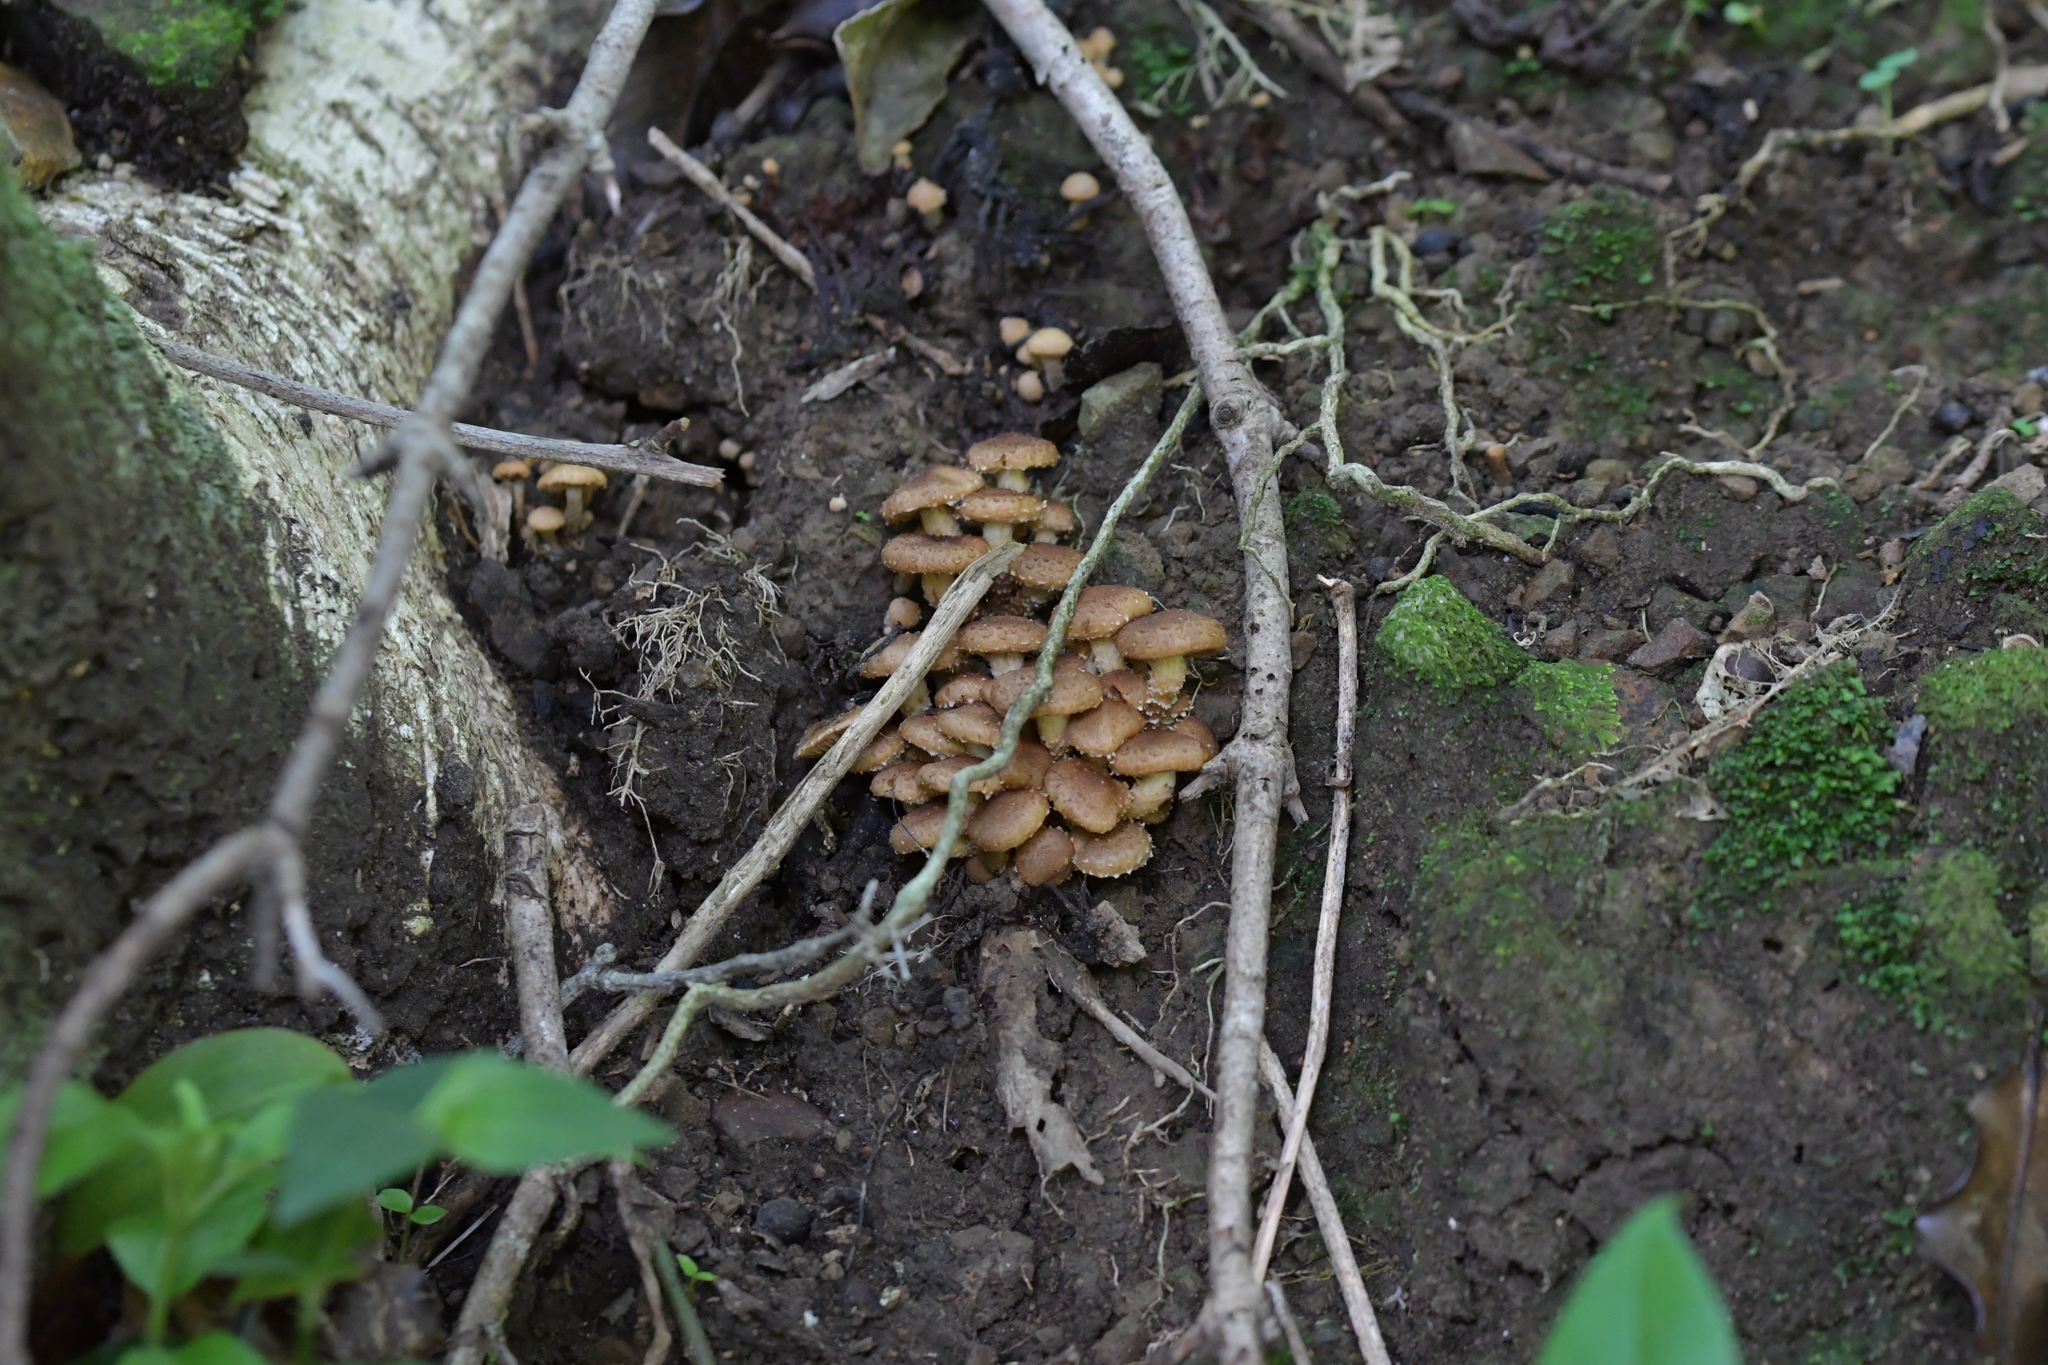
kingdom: Fungi
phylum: Basidiomycota
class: Agaricomycetes
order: Agaricales
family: Strophariaceae
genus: Pholiota
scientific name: Pholiota subflammans
